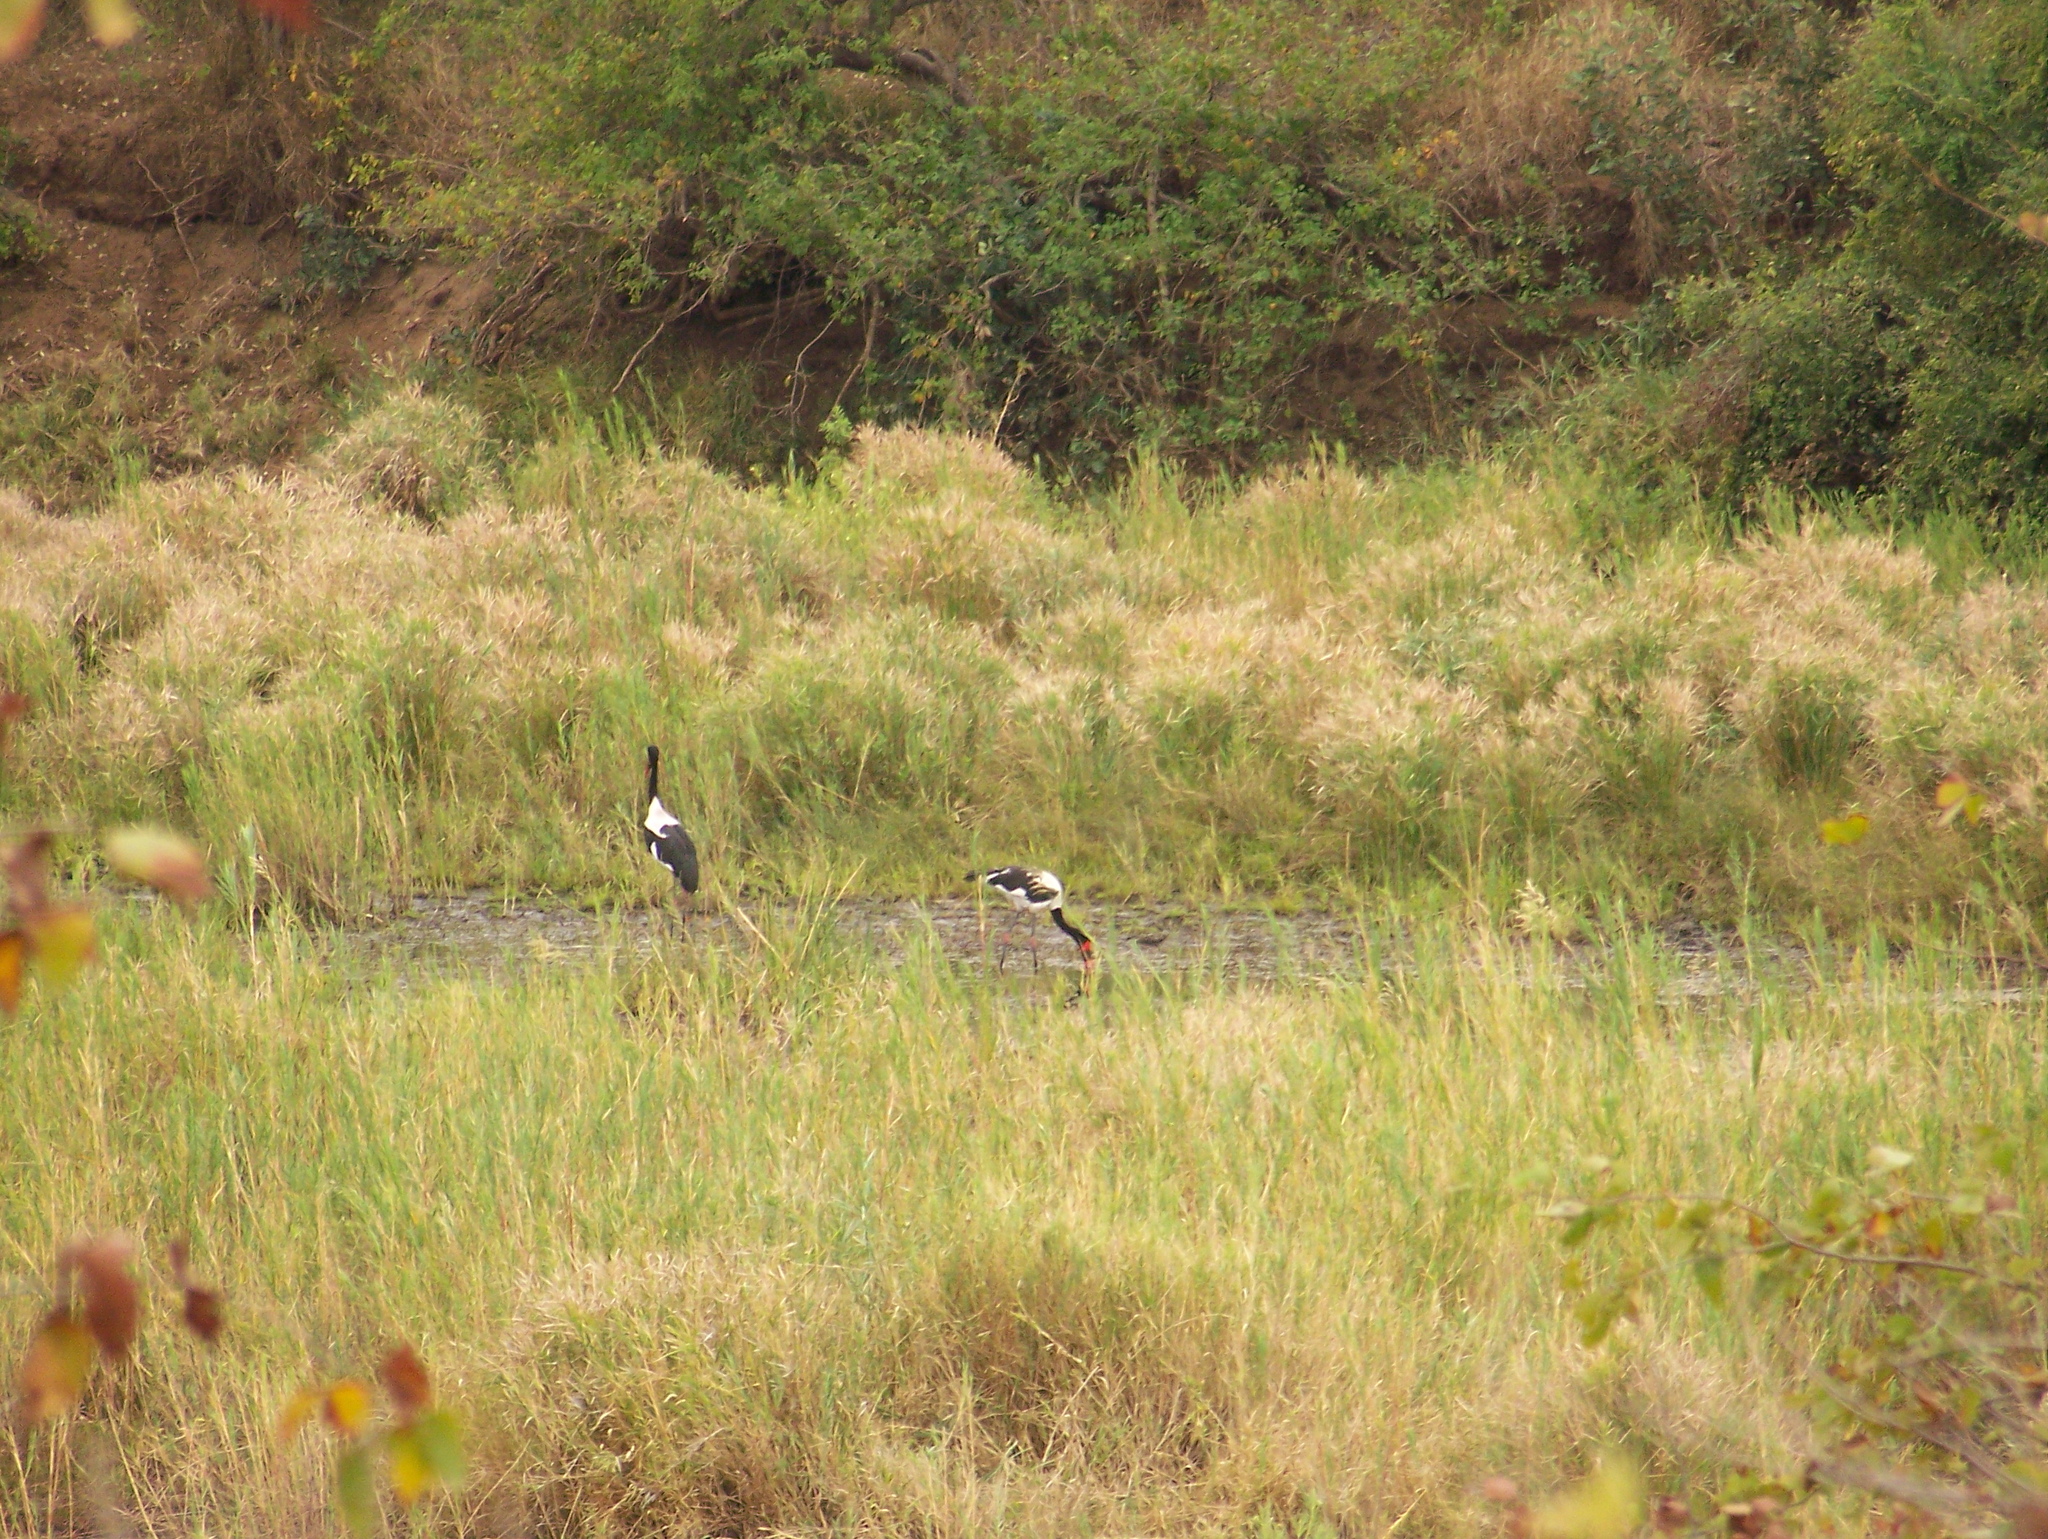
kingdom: Animalia
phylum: Chordata
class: Aves
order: Ciconiiformes
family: Ciconiidae
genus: Ephippiorhynchus
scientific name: Ephippiorhynchus senegalensis
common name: Saddle-billed stork
